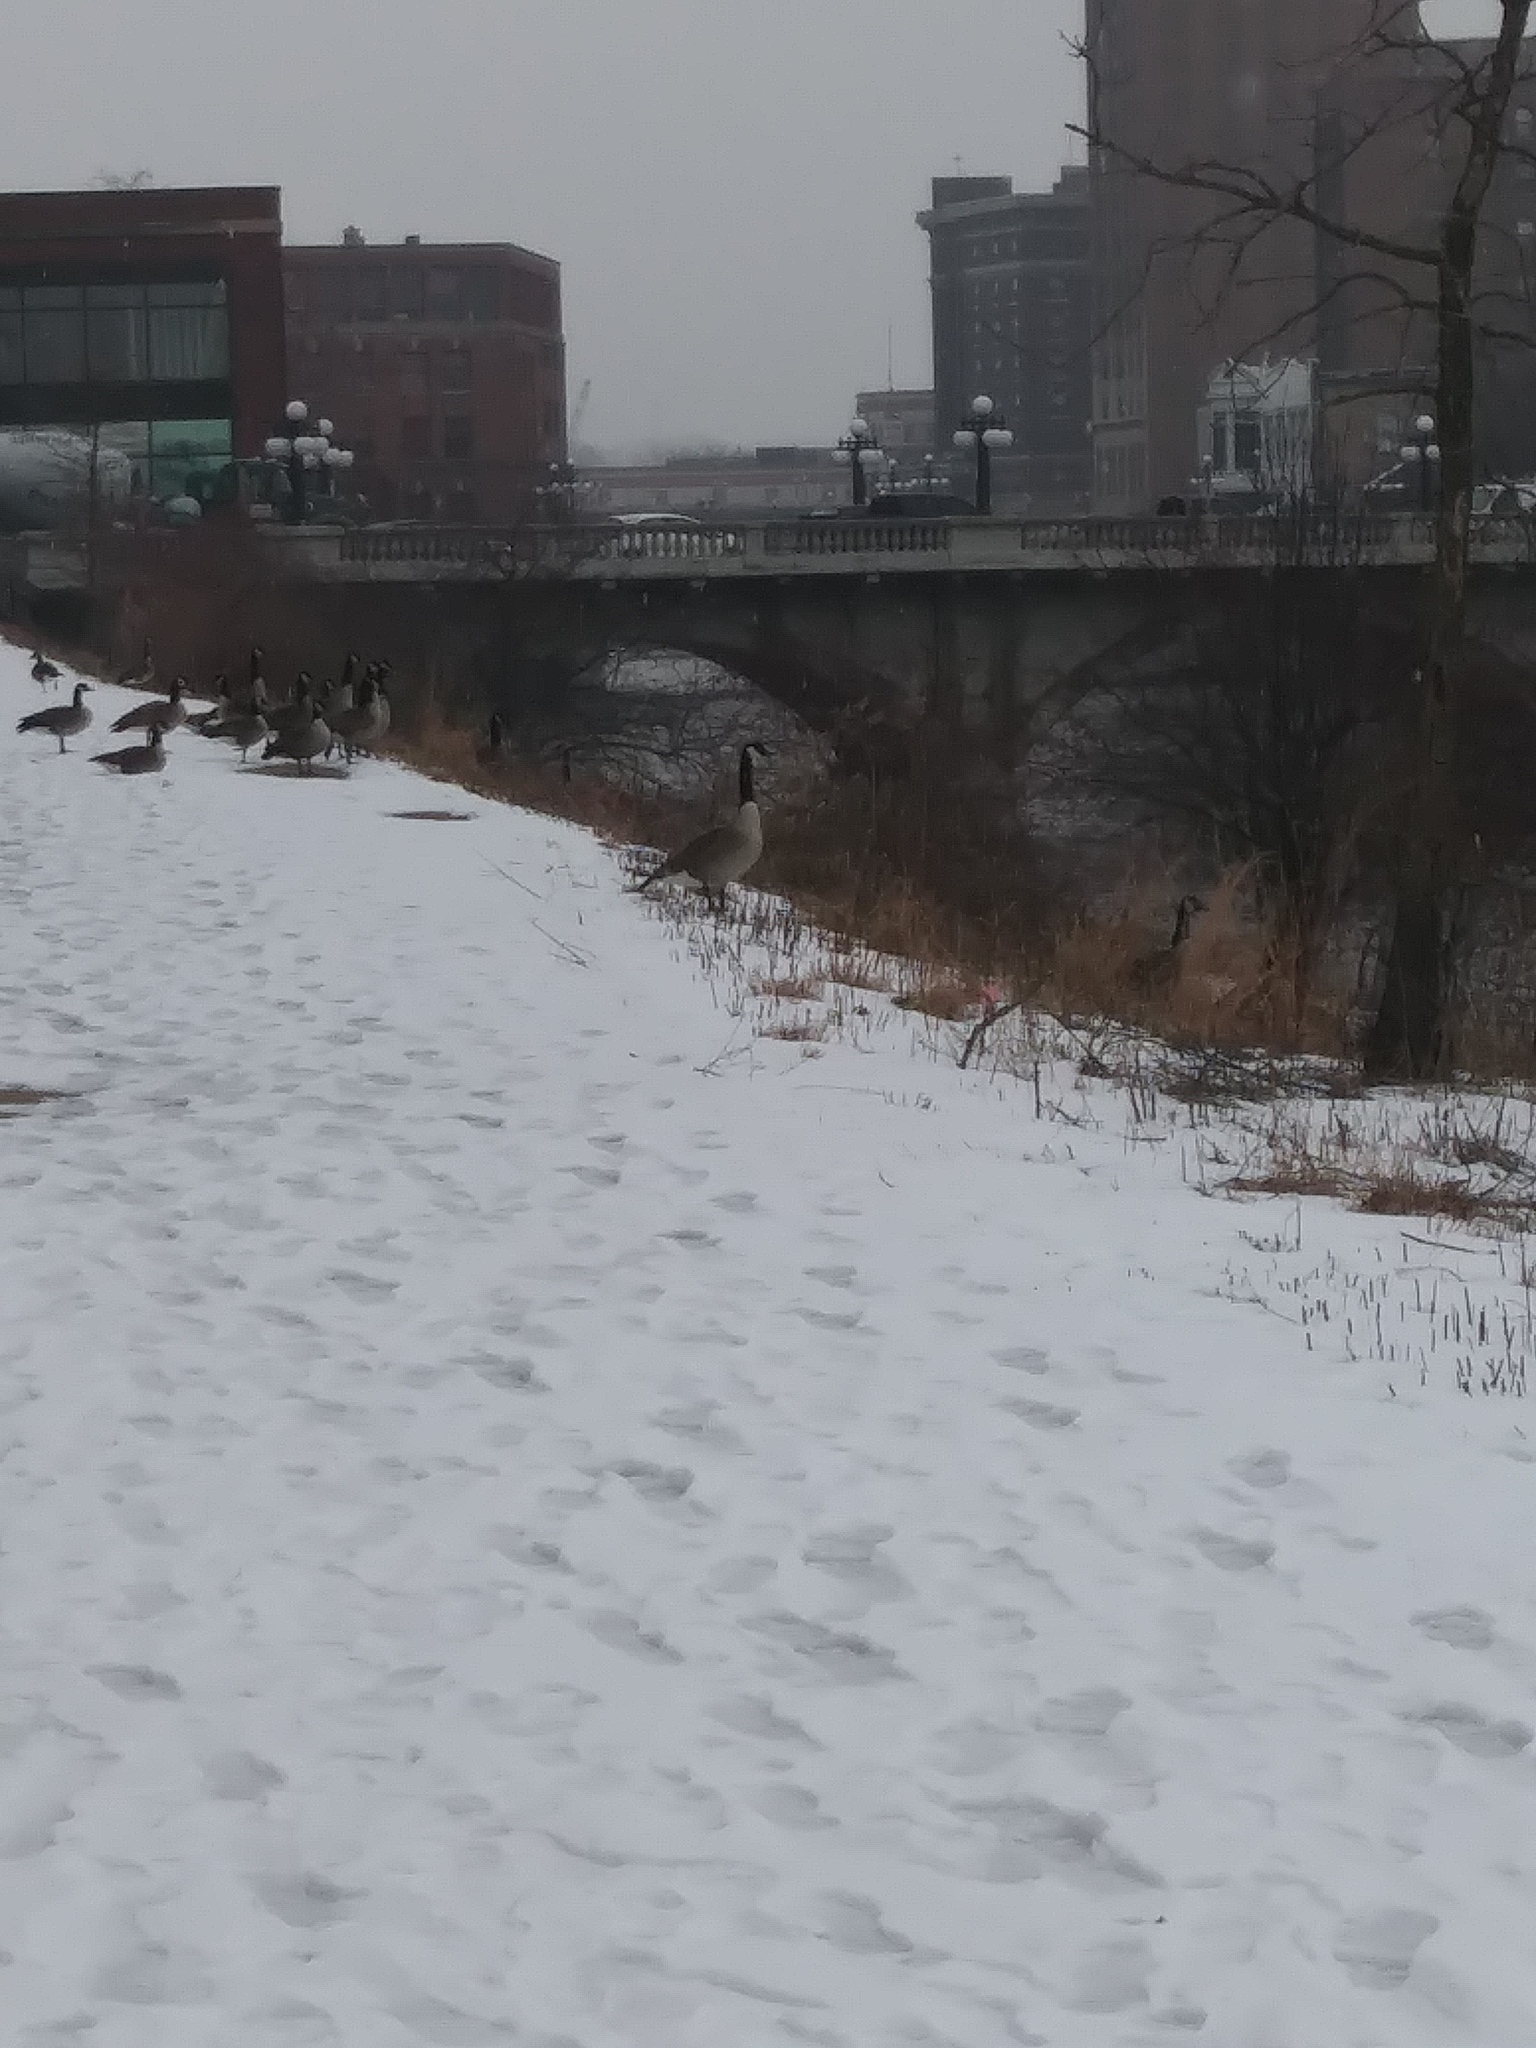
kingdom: Animalia
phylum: Chordata
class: Aves
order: Anseriformes
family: Anatidae
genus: Branta
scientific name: Branta canadensis
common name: Canada goose
